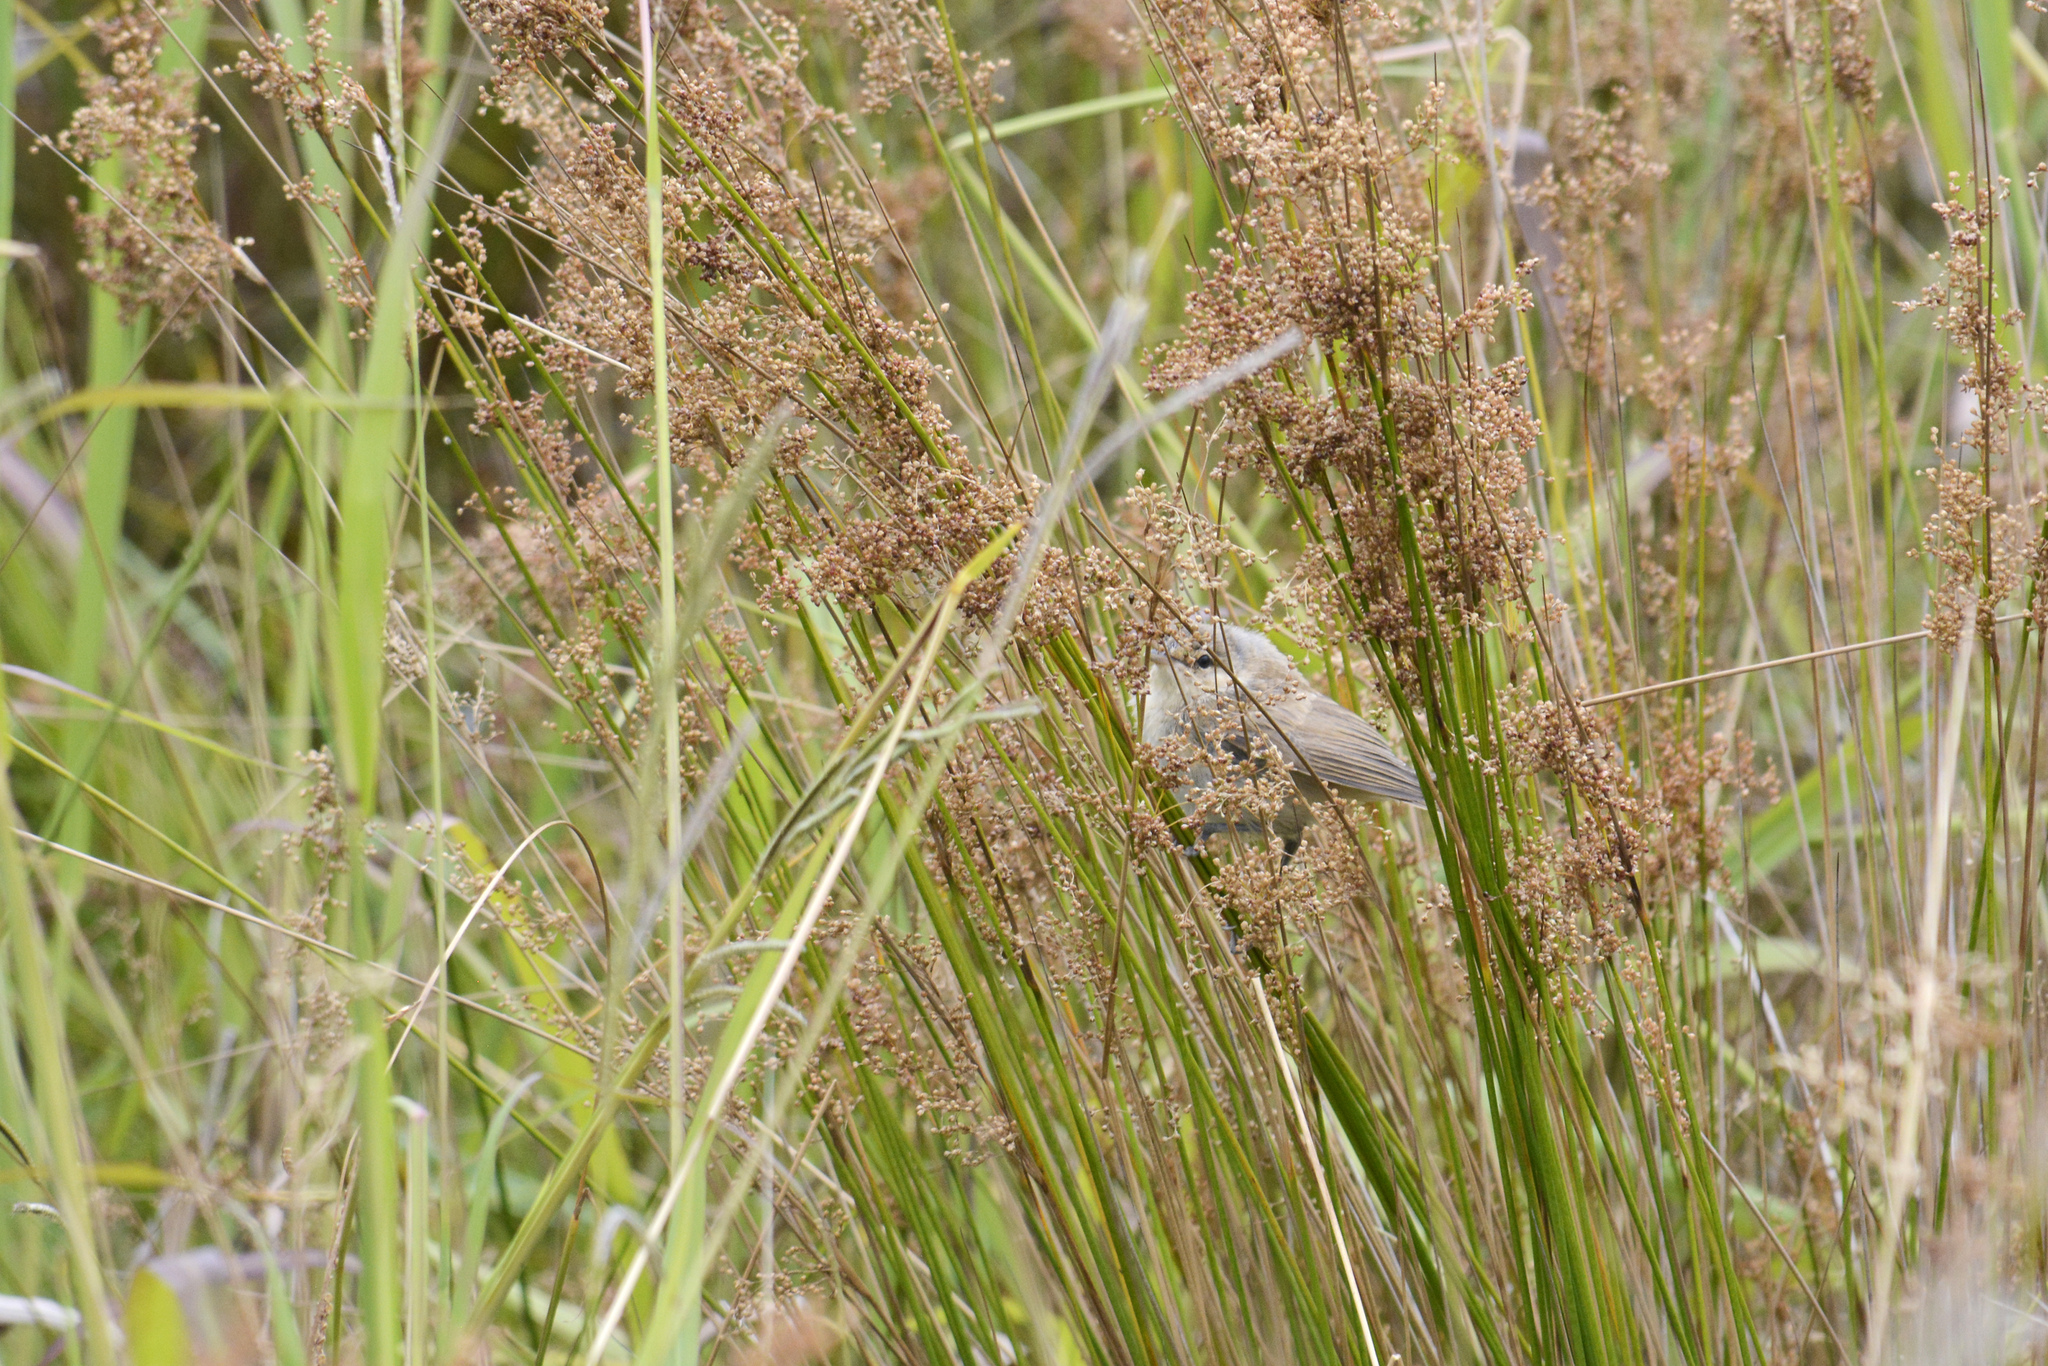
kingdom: Animalia
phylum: Chordata
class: Aves
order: Passeriformes
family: Acrocephalidae
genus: Acrocephalus
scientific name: Acrocephalus australis
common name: Australian reed warbler
